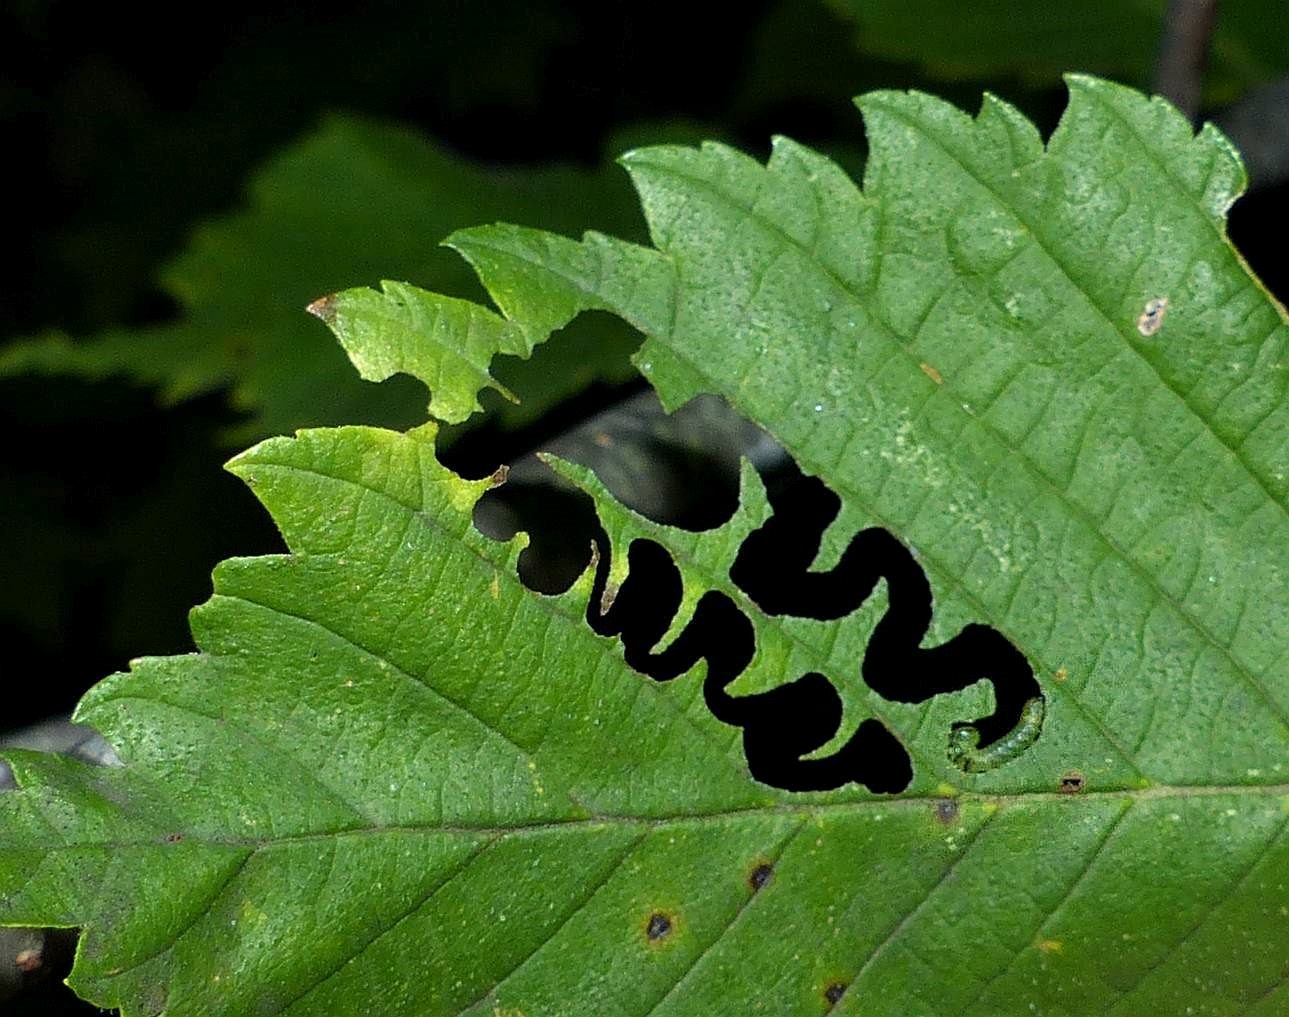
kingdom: Animalia
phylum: Arthropoda
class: Insecta
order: Hymenoptera
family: Argidae
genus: Aproceros
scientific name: Aproceros leucopoda
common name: Zig-zag elm sawfly
